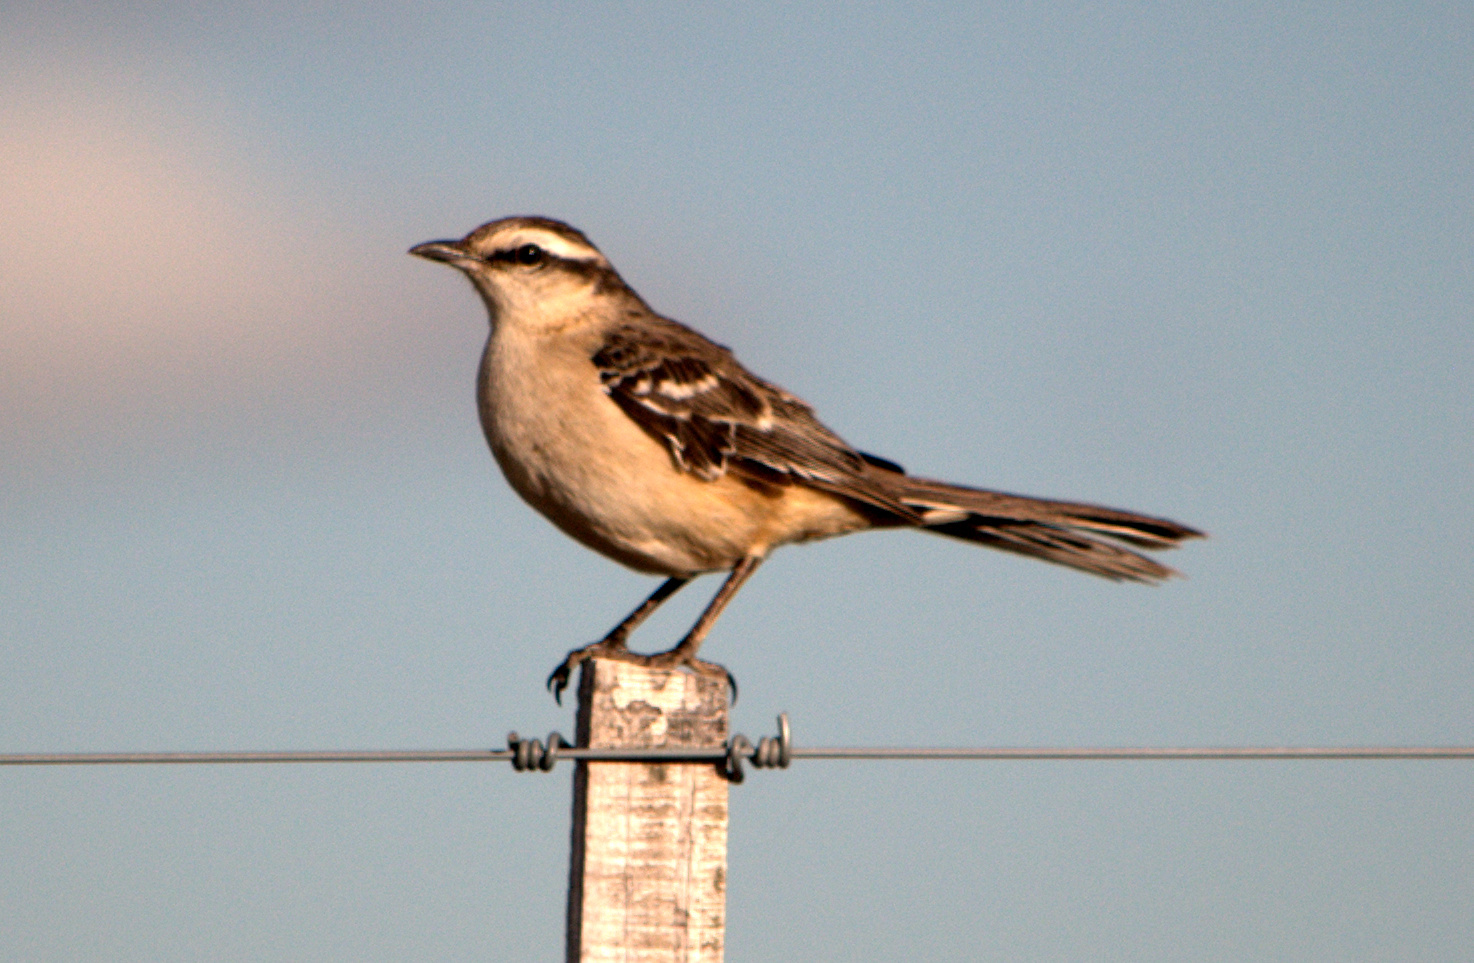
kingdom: Animalia
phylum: Chordata
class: Aves
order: Passeriformes
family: Mimidae
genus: Mimus
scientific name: Mimus saturninus
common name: Chalk-browed mockingbird
